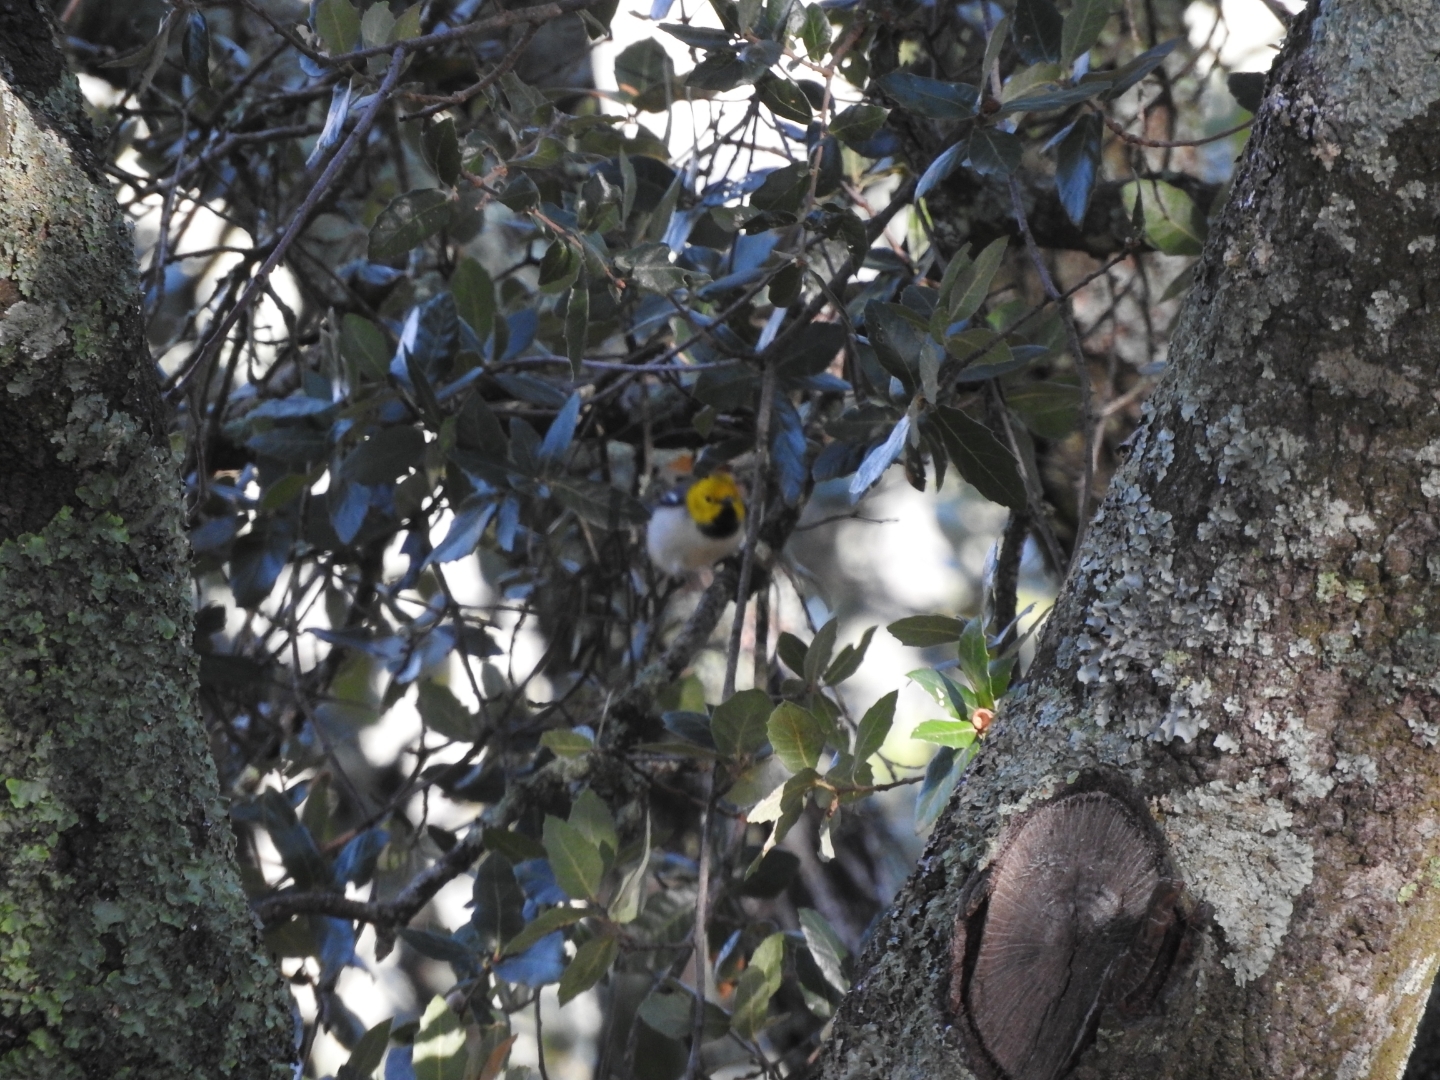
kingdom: Animalia
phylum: Chordata
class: Aves
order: Passeriformes
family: Parulidae
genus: Setophaga
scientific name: Setophaga occidentalis
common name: Hermit warbler
